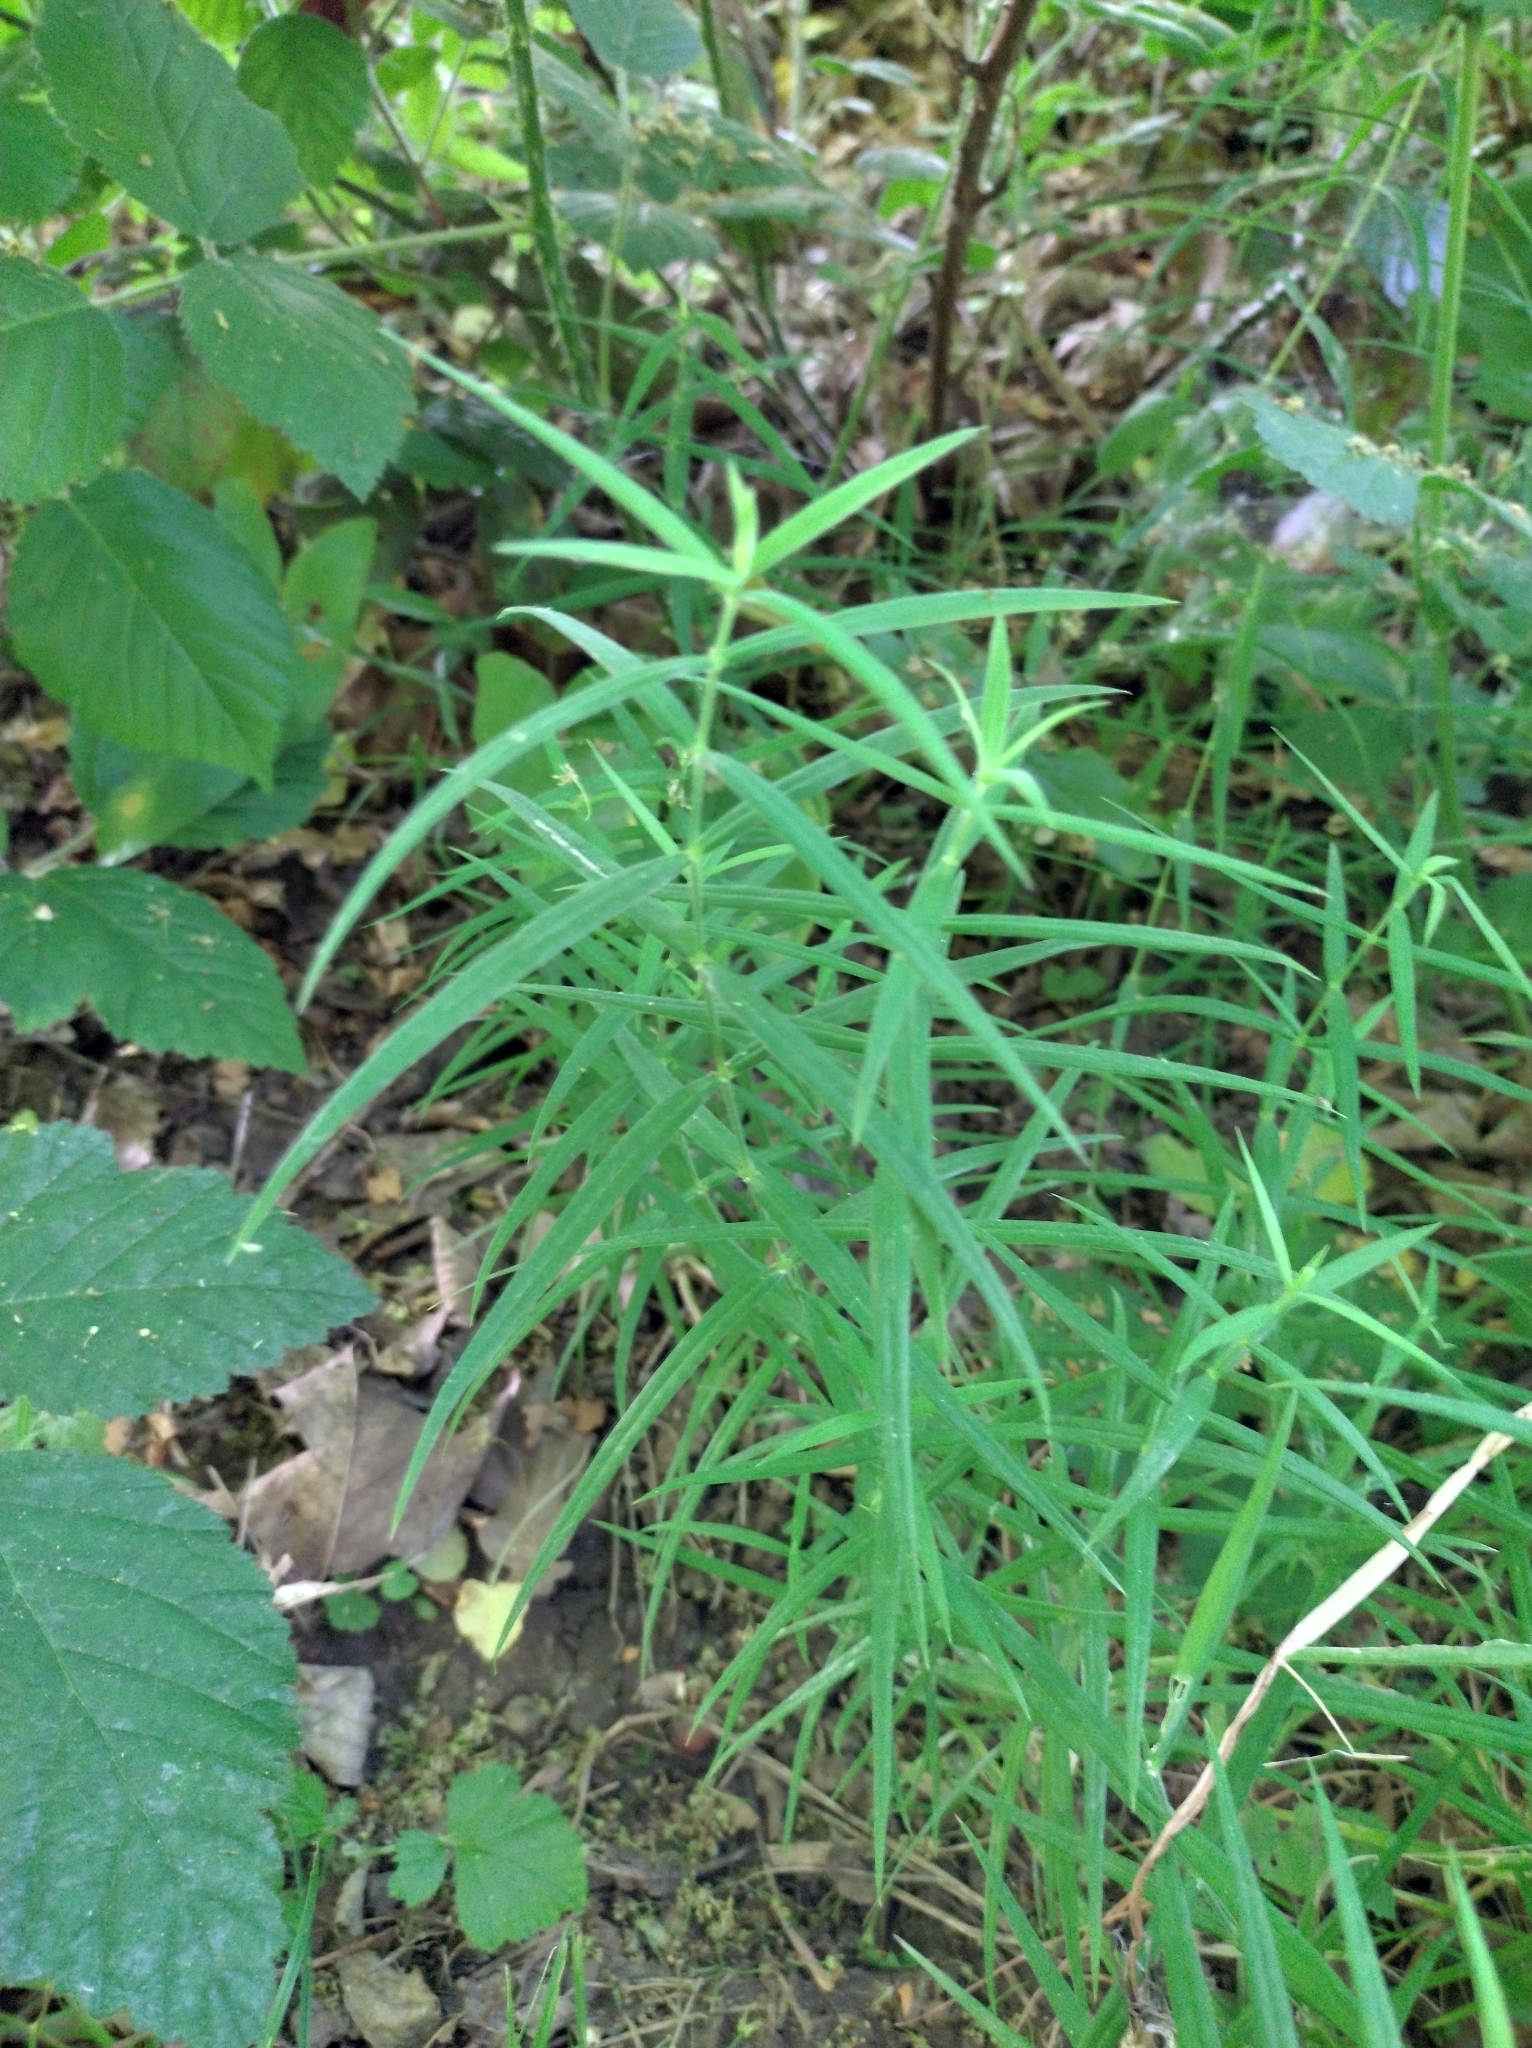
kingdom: Plantae
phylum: Tracheophyta
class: Liliopsida
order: Asparagales
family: Asparagaceae
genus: Polygonatum
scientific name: Polygonatum verticillatum
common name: Whorled solomon's-seal
